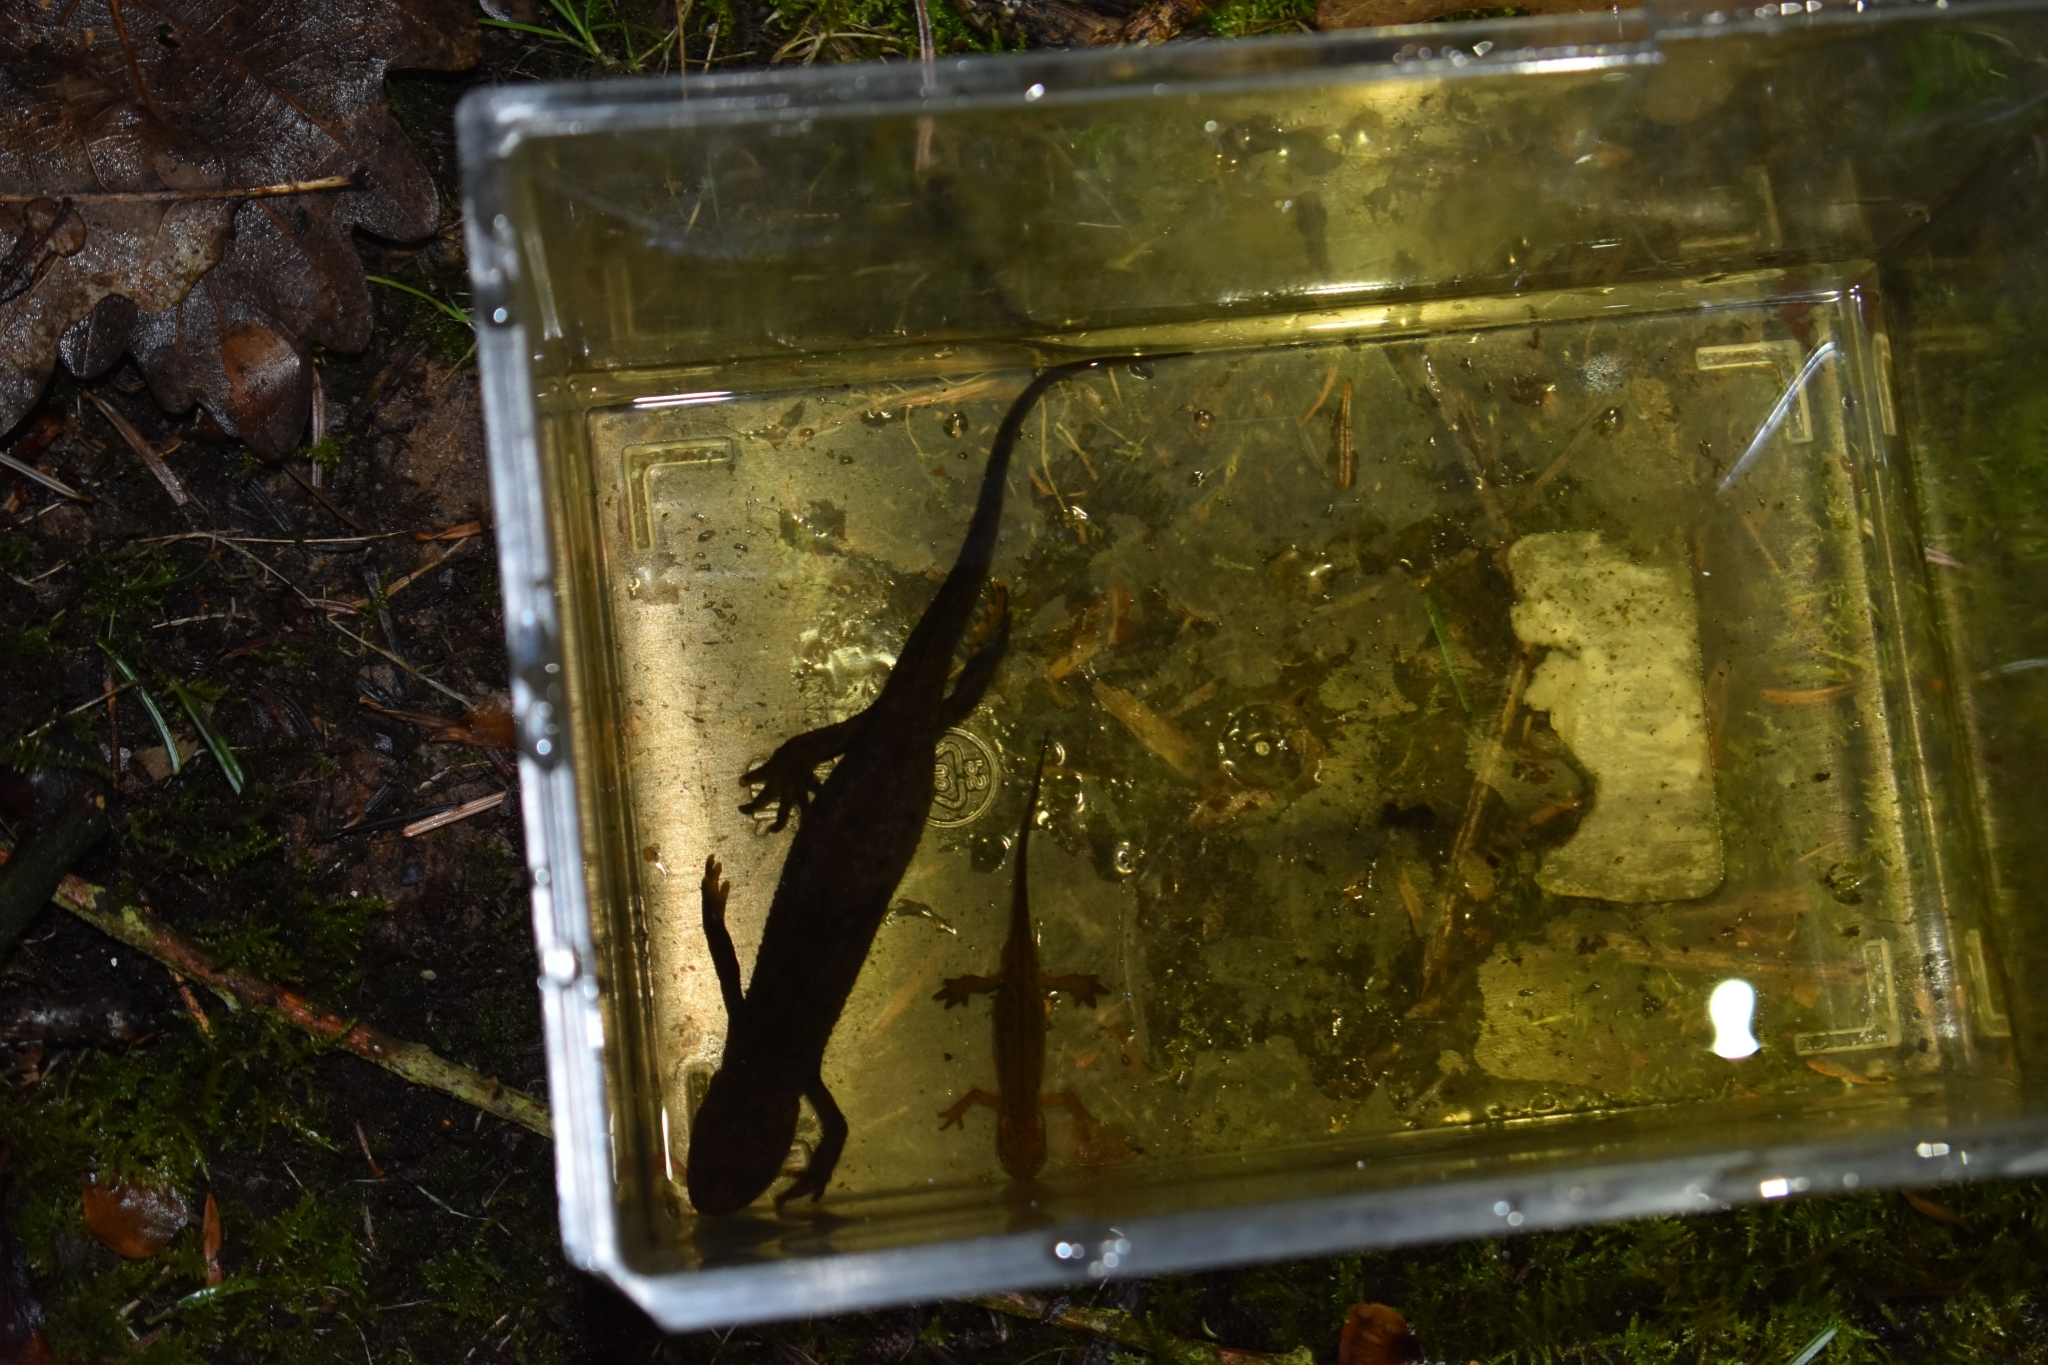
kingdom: Animalia
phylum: Chordata
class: Amphibia
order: Caudata
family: Salamandridae
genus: Triturus
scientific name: Triturus cristatus
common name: Crested newt
